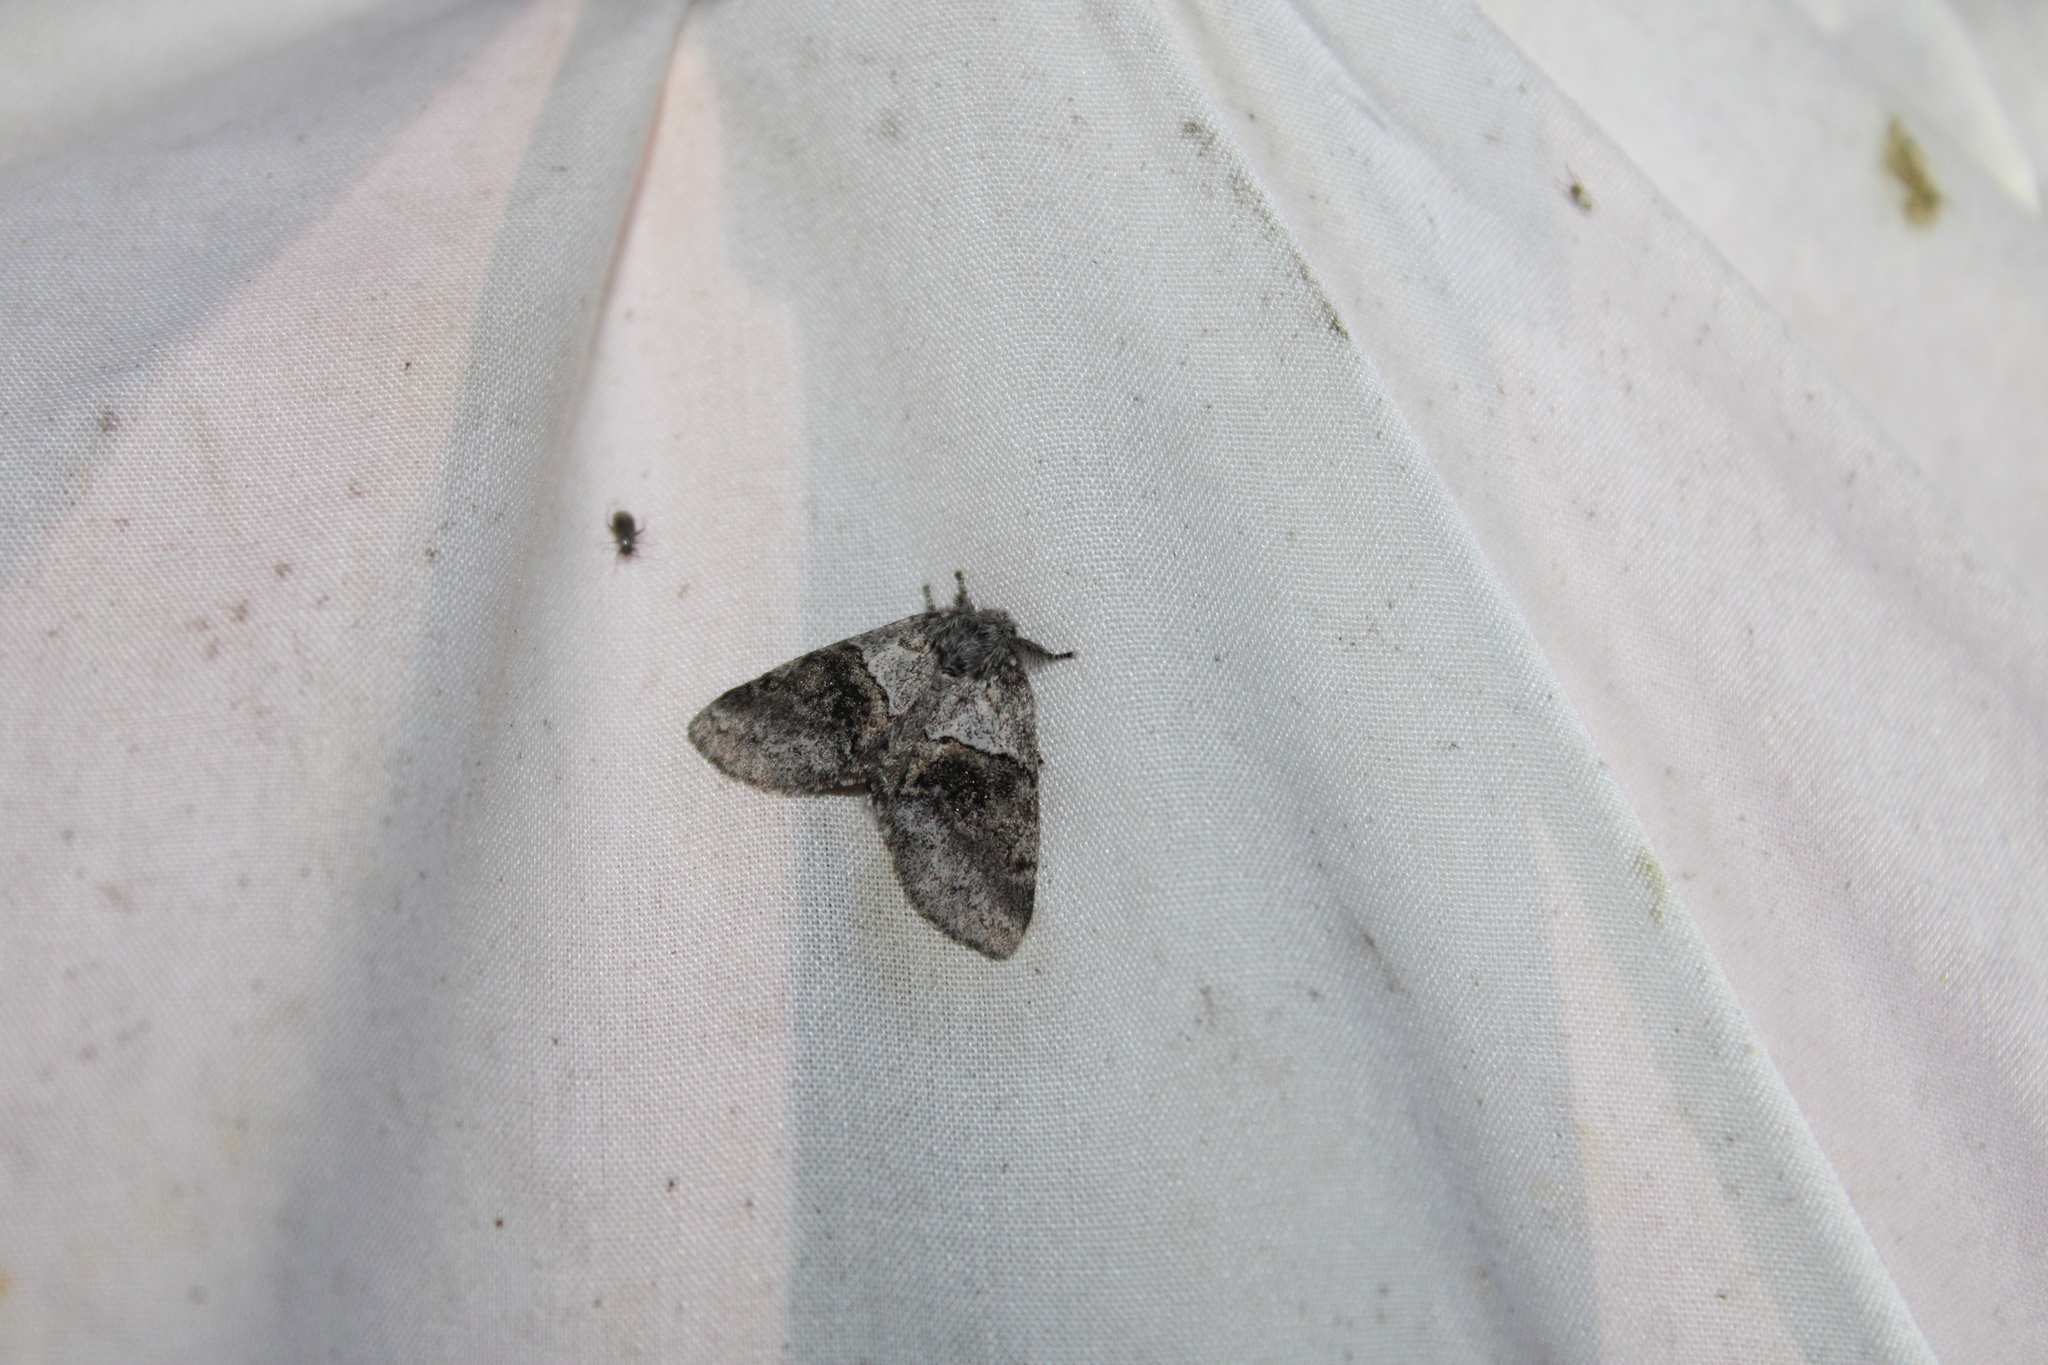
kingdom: Animalia
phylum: Arthropoda
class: Insecta
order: Lepidoptera
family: Notodontidae
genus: Gluphisia
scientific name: Gluphisia septentrionis
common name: Common gluphisia
